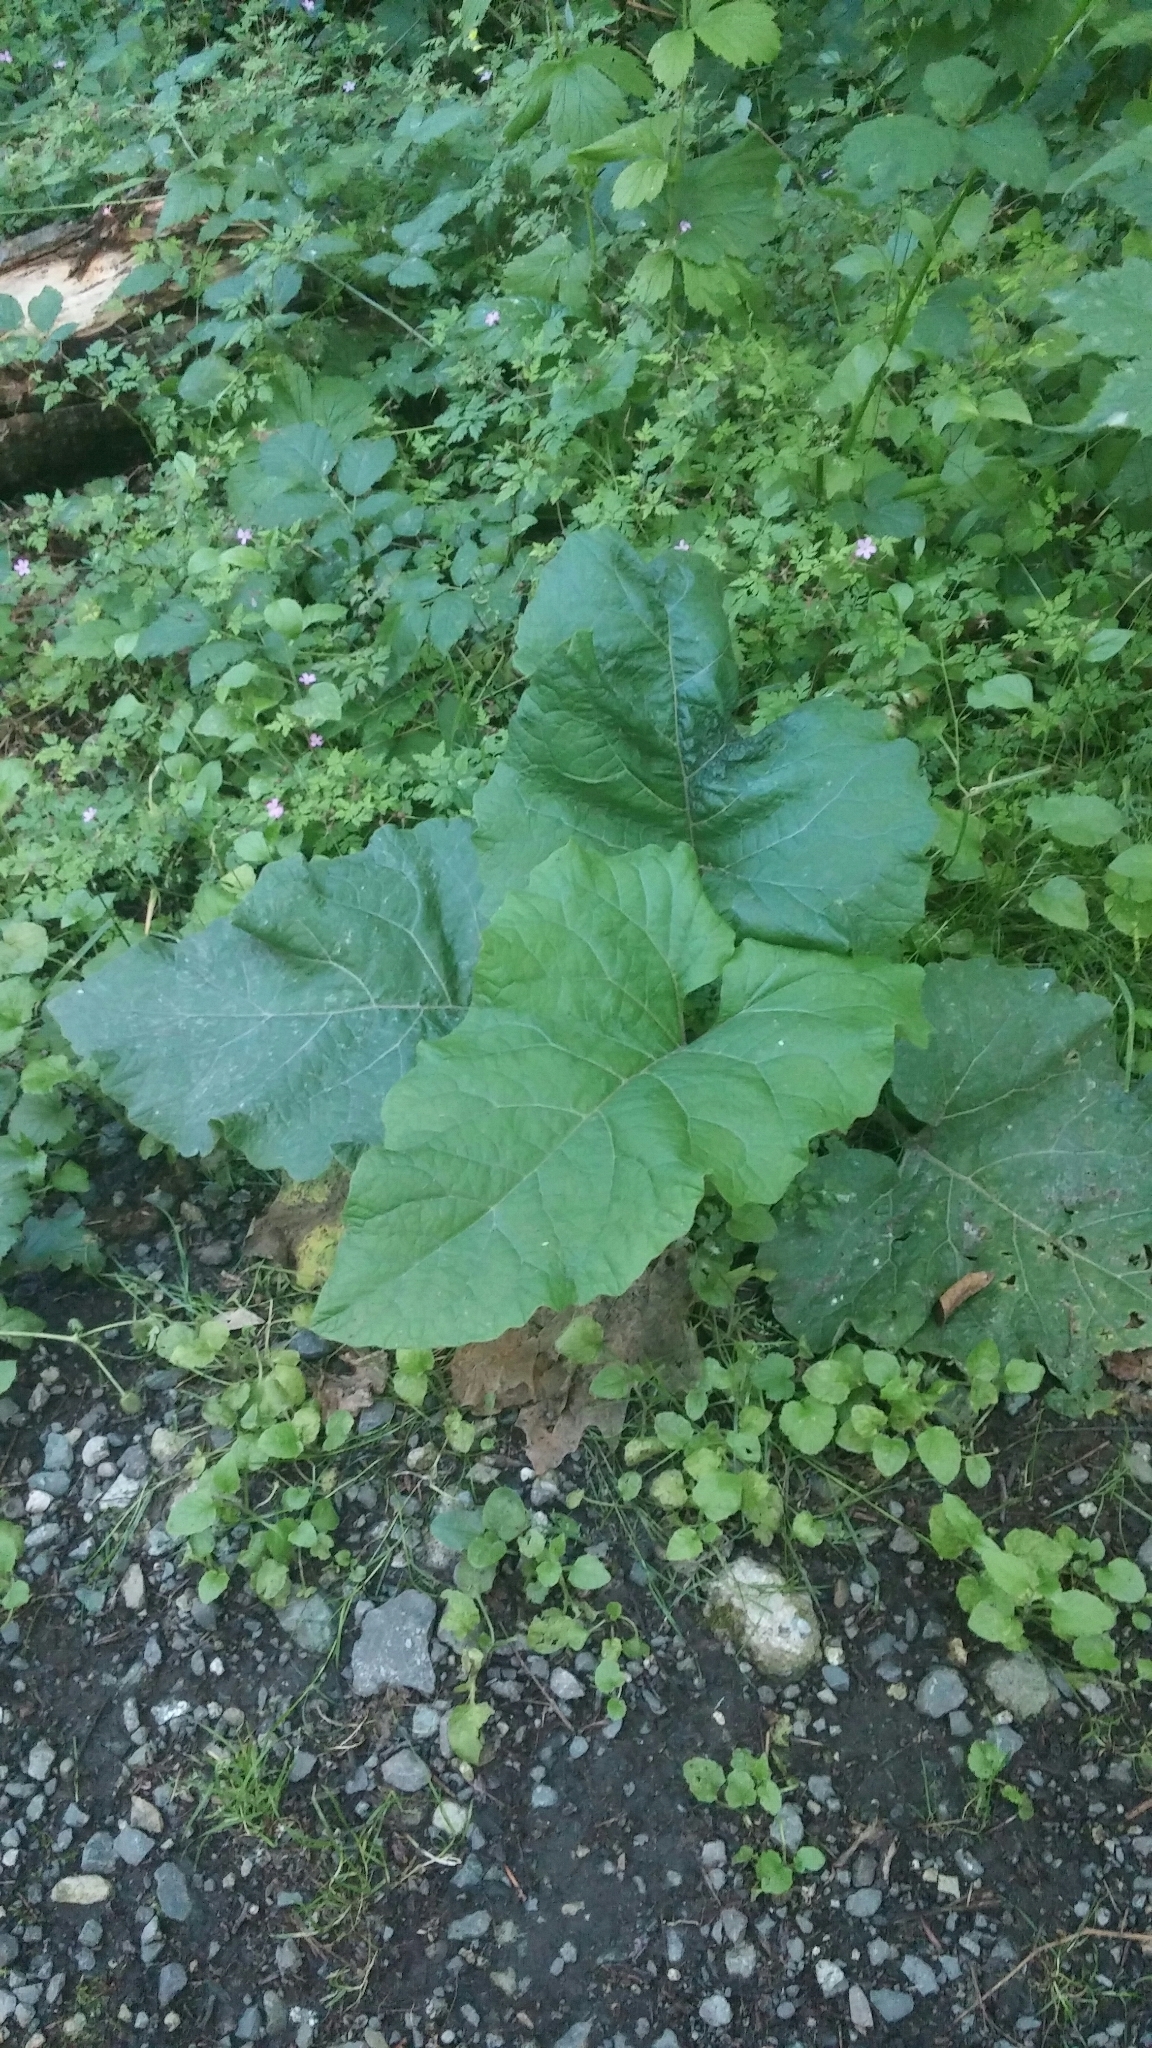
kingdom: Plantae
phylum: Tracheophyta
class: Magnoliopsida
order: Asterales
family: Asteraceae
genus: Arctium
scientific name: Arctium minus
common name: Lesser burdock
